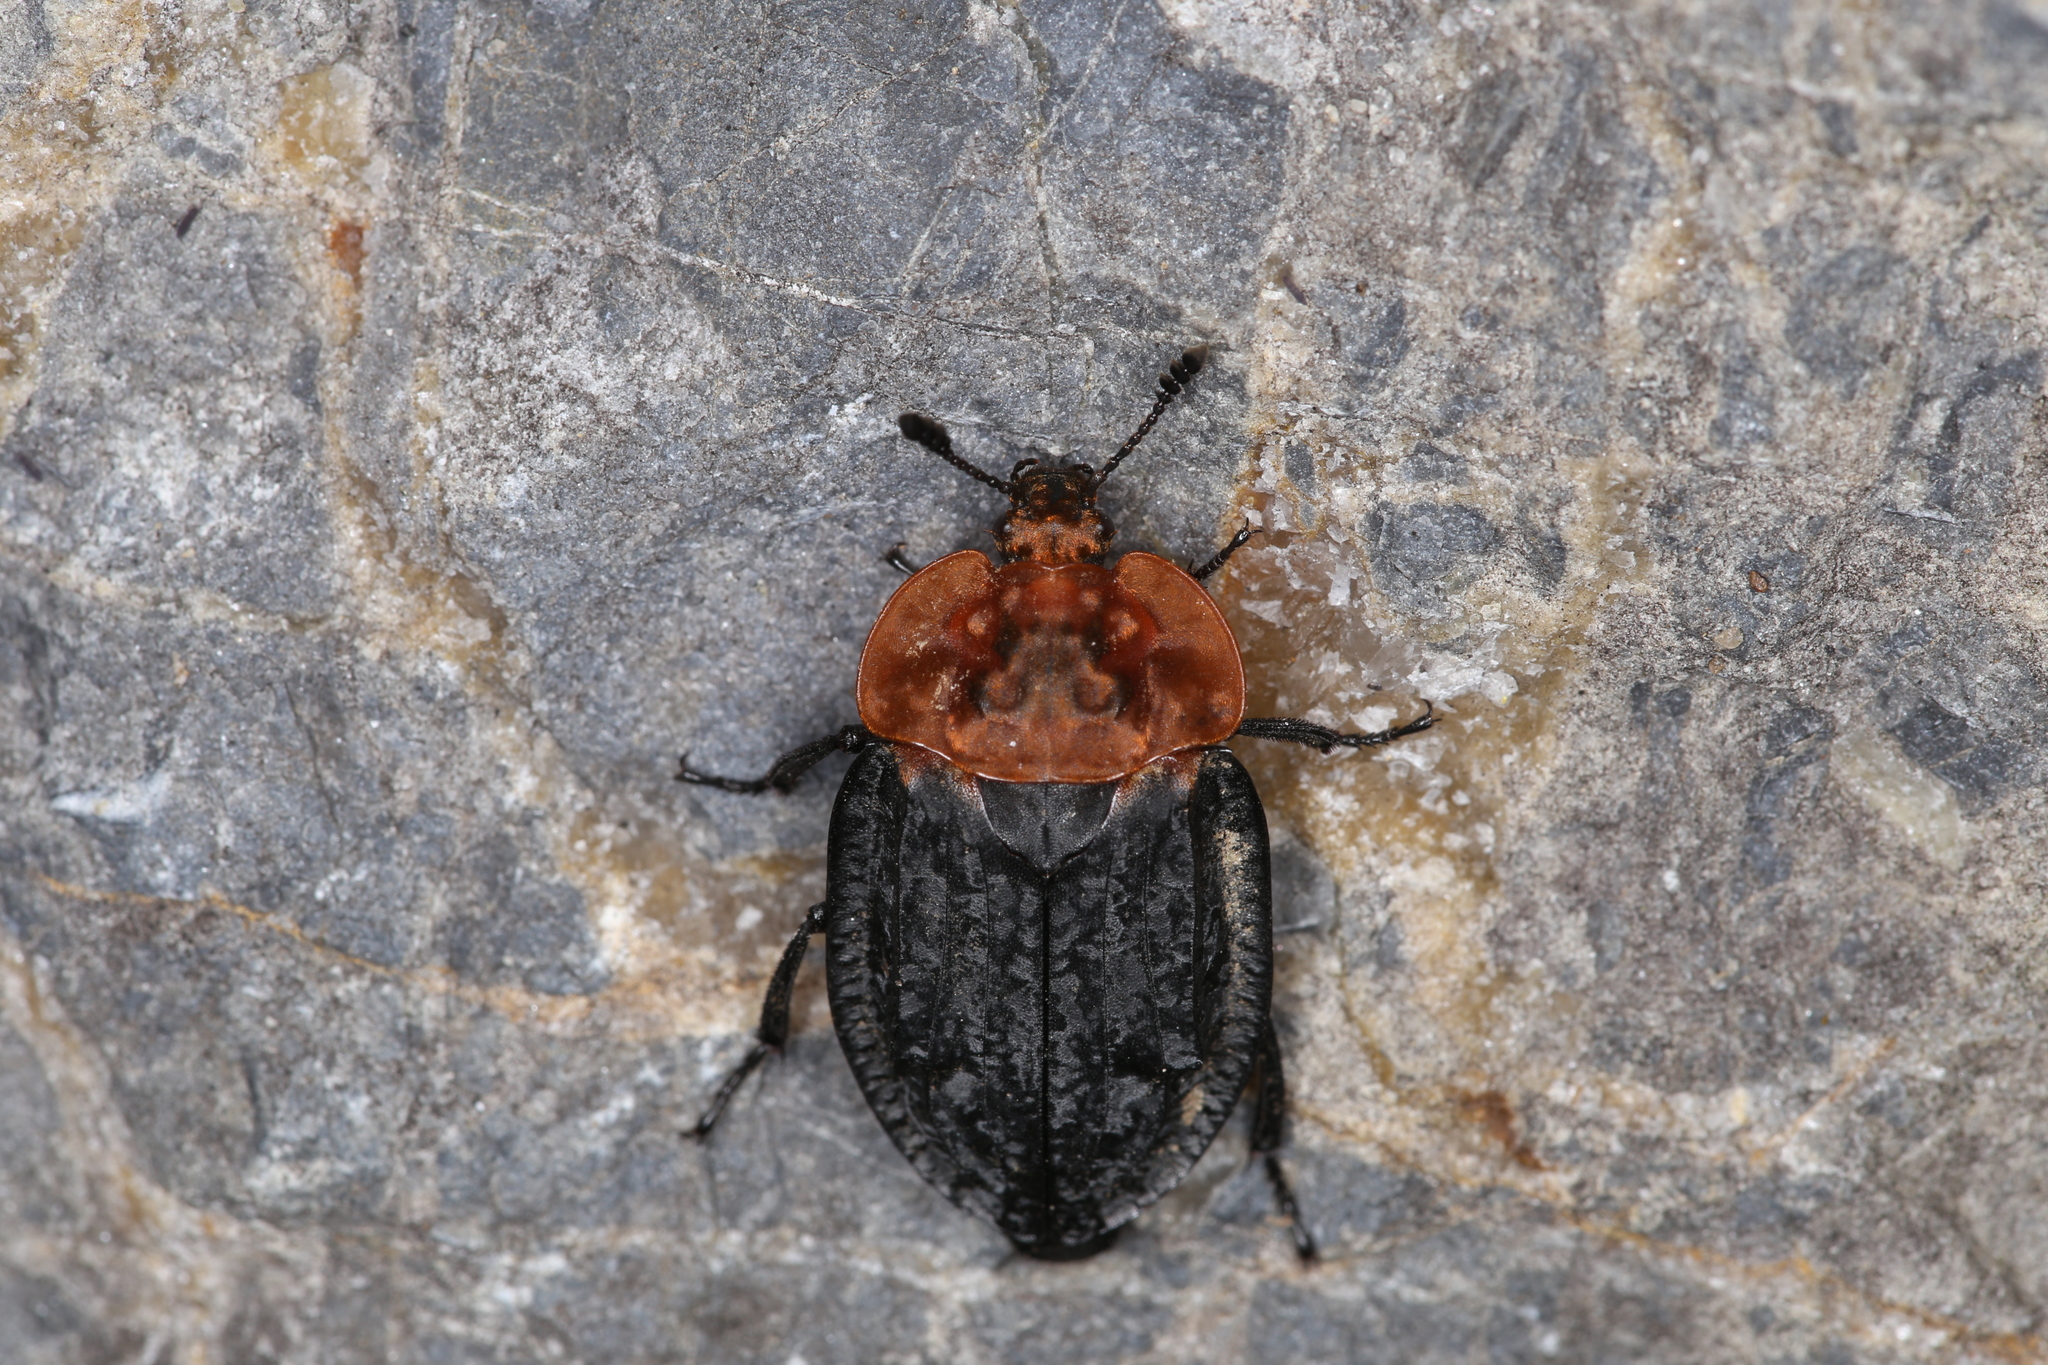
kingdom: Animalia
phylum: Arthropoda
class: Insecta
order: Coleoptera
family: Staphylinidae
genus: Oiceoptoma
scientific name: Oiceoptoma thoracicum
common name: Red-breasted carrion beetle
